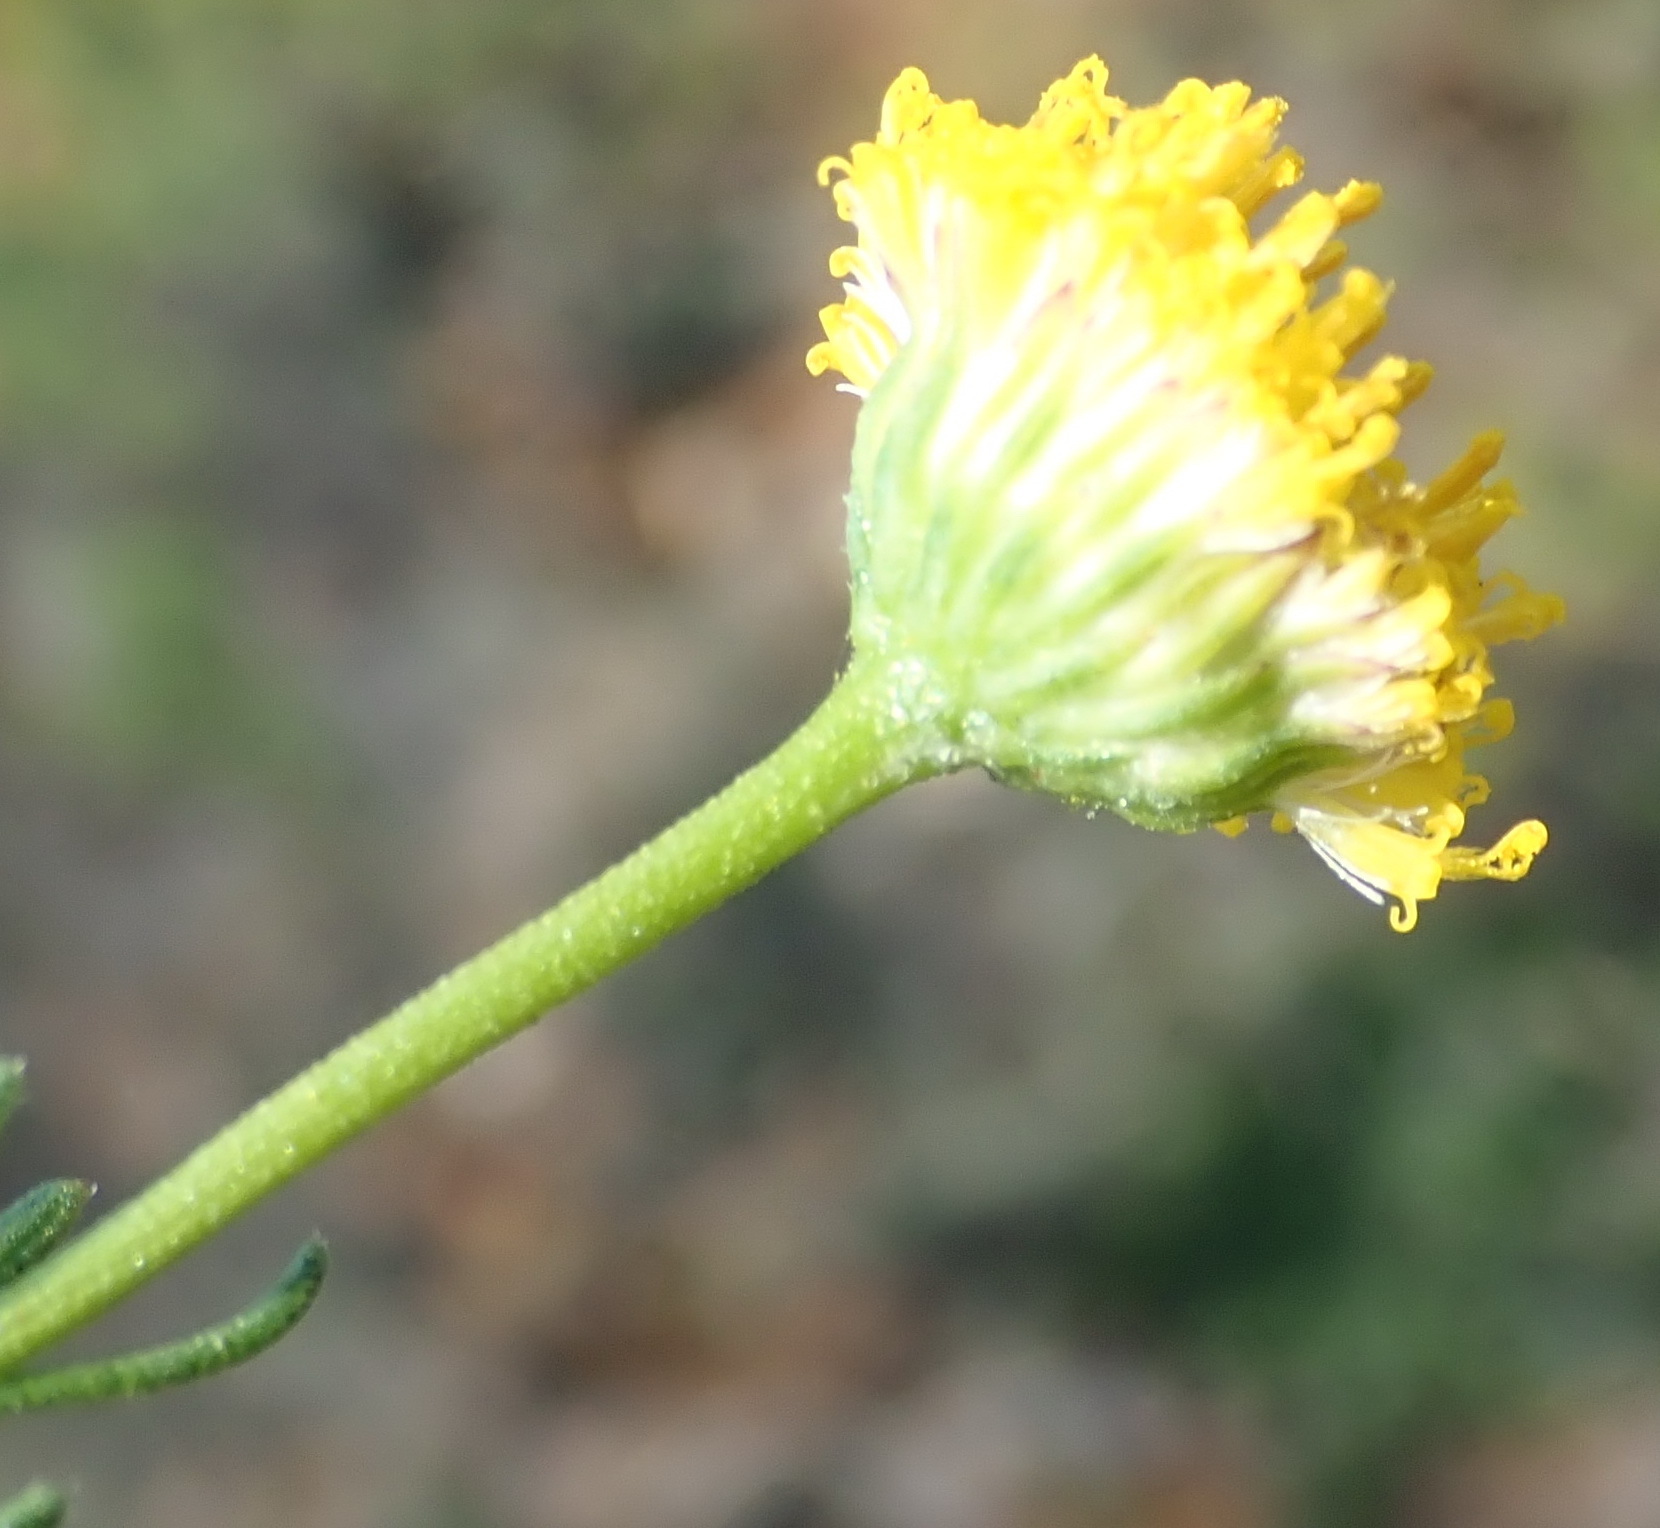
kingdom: Plantae
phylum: Tracheophyta
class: Magnoliopsida
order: Asterales
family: Asteraceae
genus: Chrysocoma
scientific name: Chrysocoma ciliata
